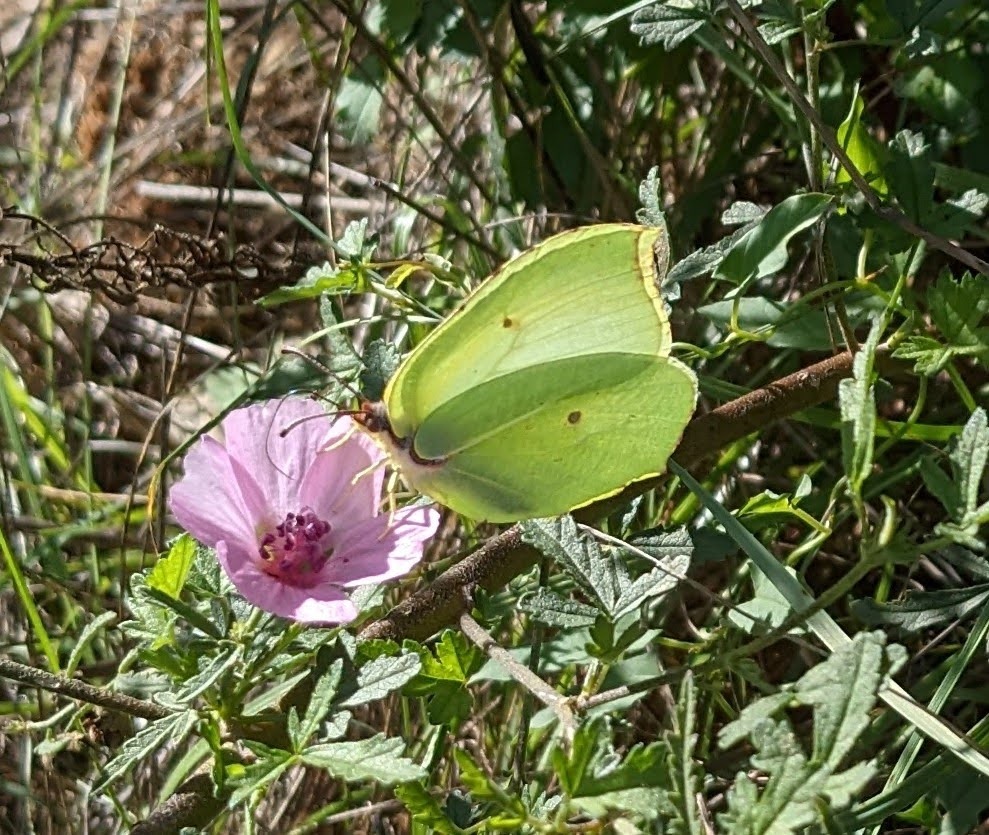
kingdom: Animalia
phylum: Arthropoda
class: Insecta
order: Lepidoptera
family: Pieridae
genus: Gonepteryx
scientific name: Gonepteryx rhamni
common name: Brimstone
